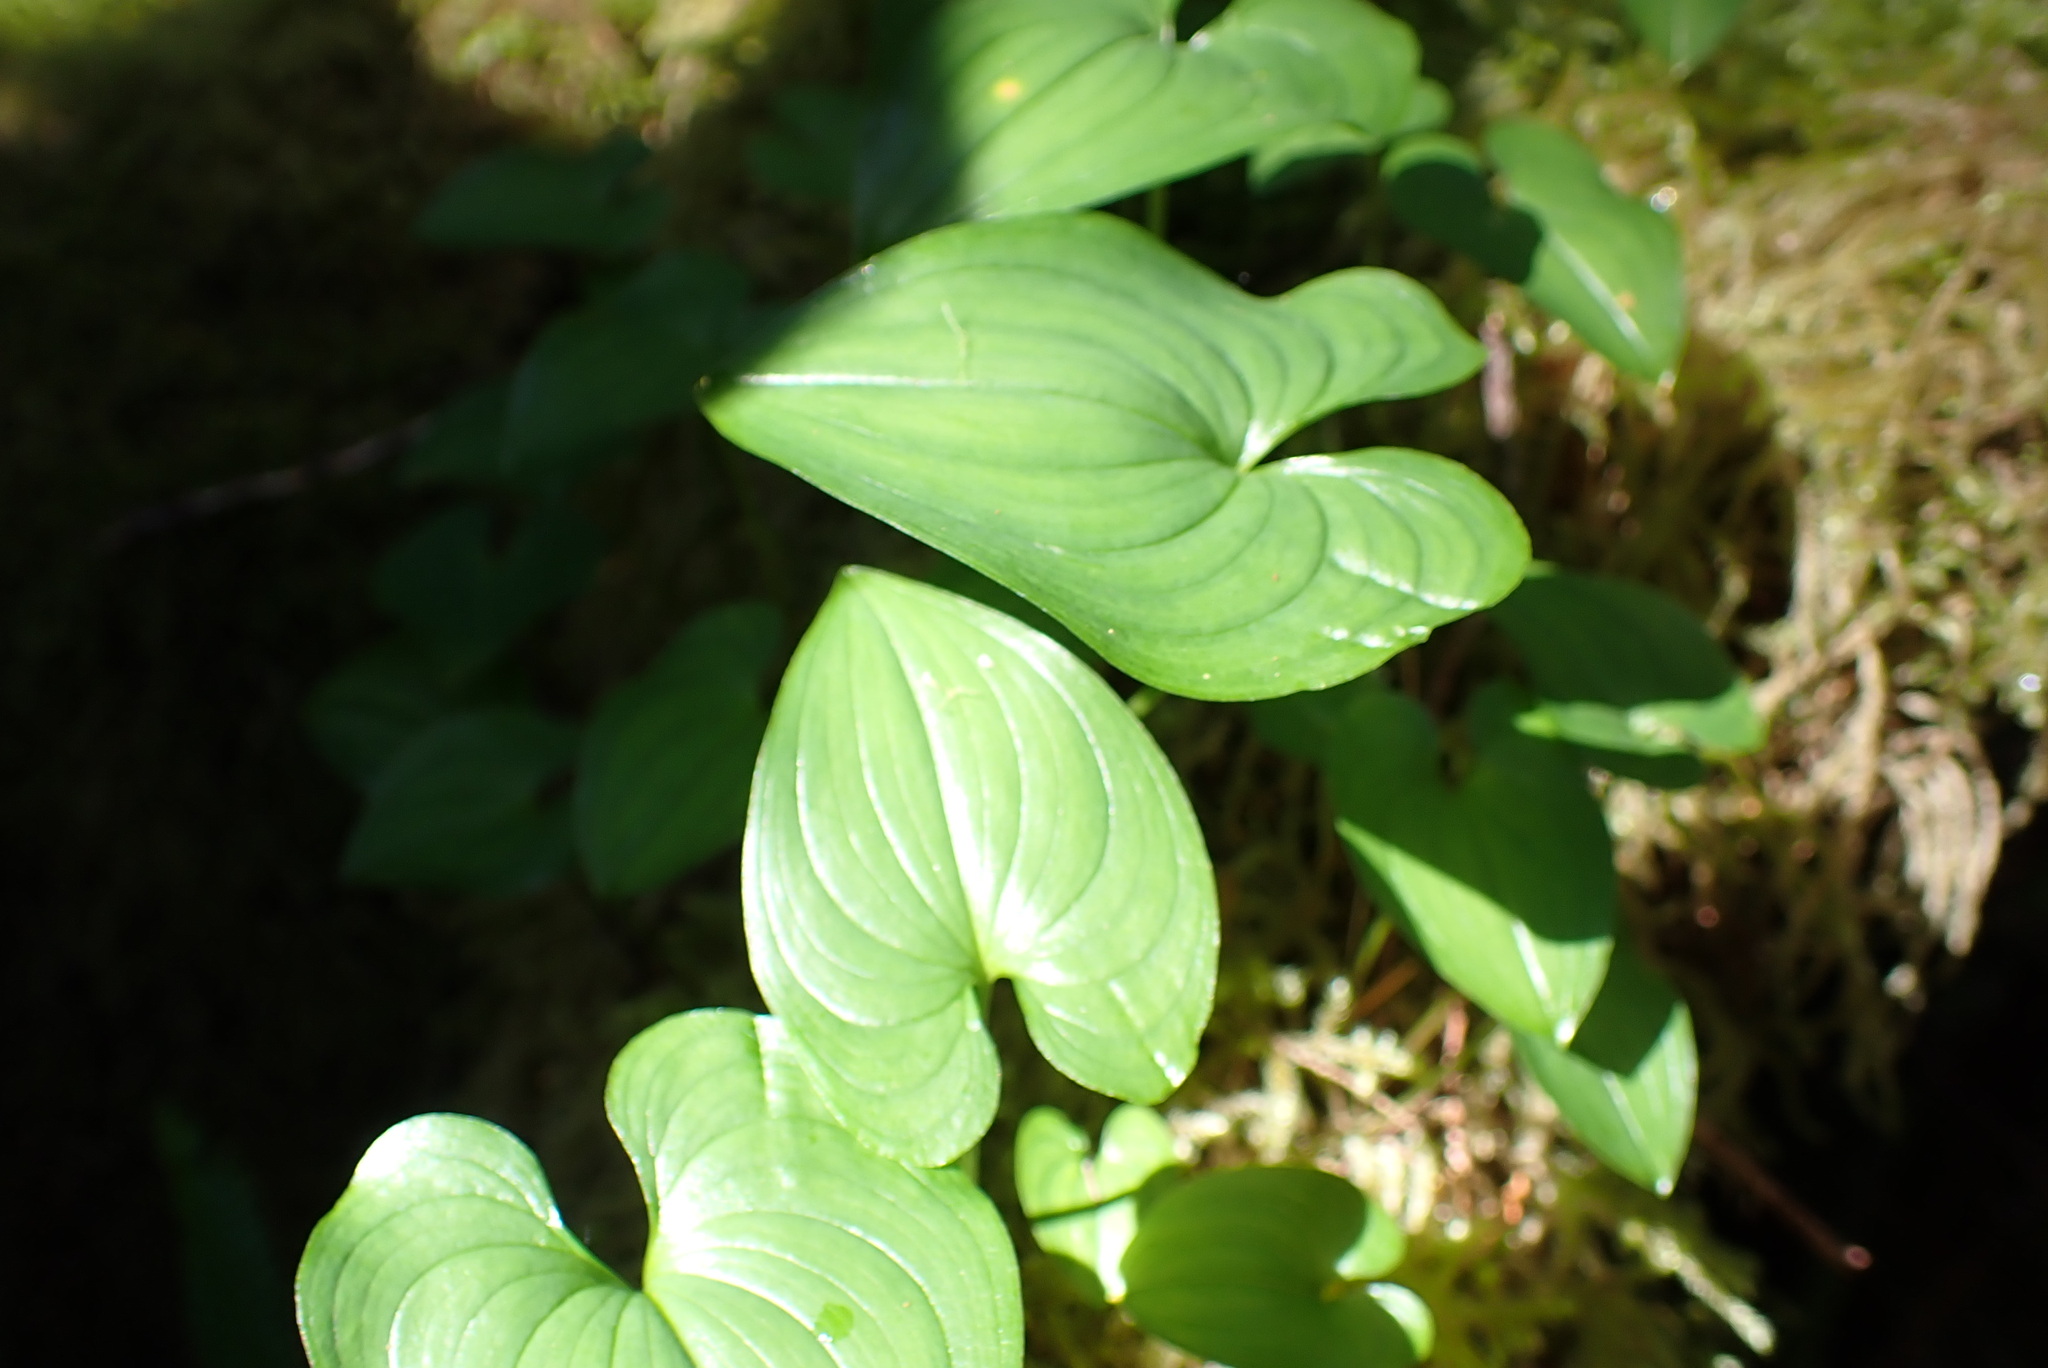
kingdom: Plantae
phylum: Tracheophyta
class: Liliopsida
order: Asparagales
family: Asparagaceae
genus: Maianthemum
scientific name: Maianthemum dilatatum
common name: False lily-of-the-valley
